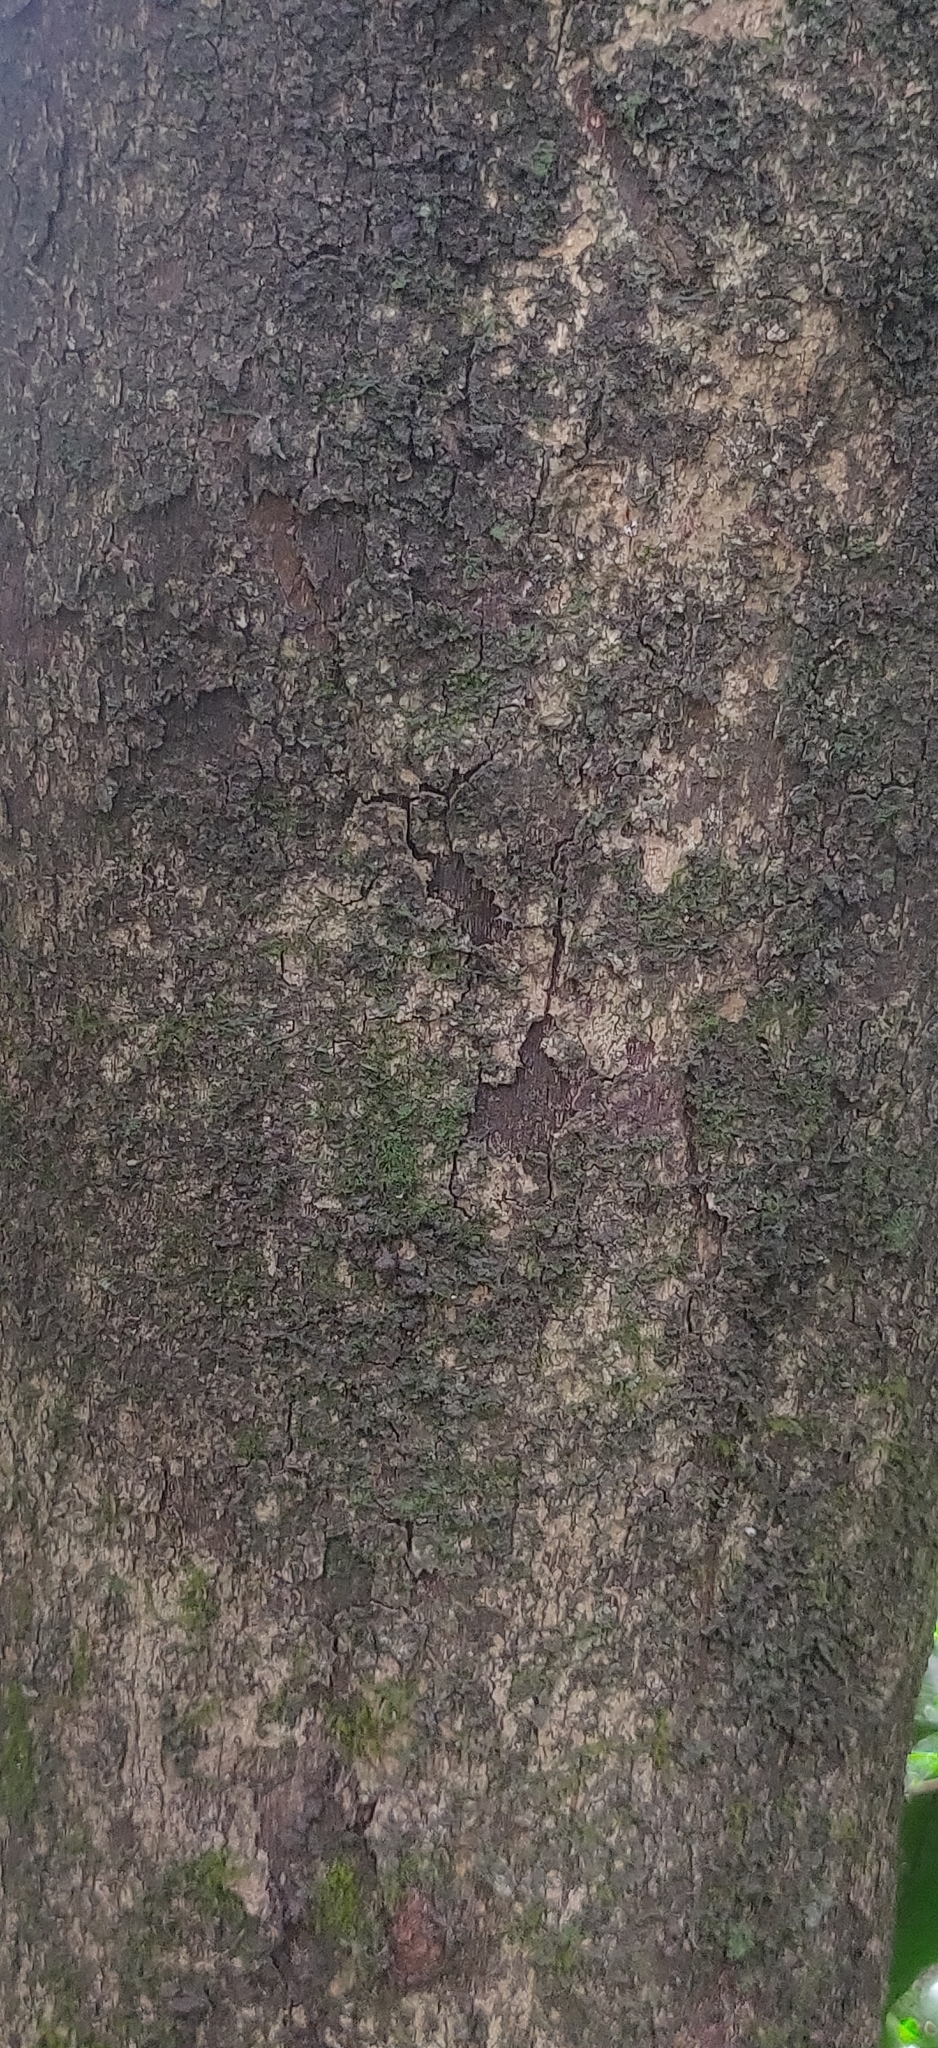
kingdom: Plantae
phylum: Tracheophyta
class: Magnoliopsida
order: Malpighiales
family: Phyllanthaceae
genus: Antidesma
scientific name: Antidesma montanum
